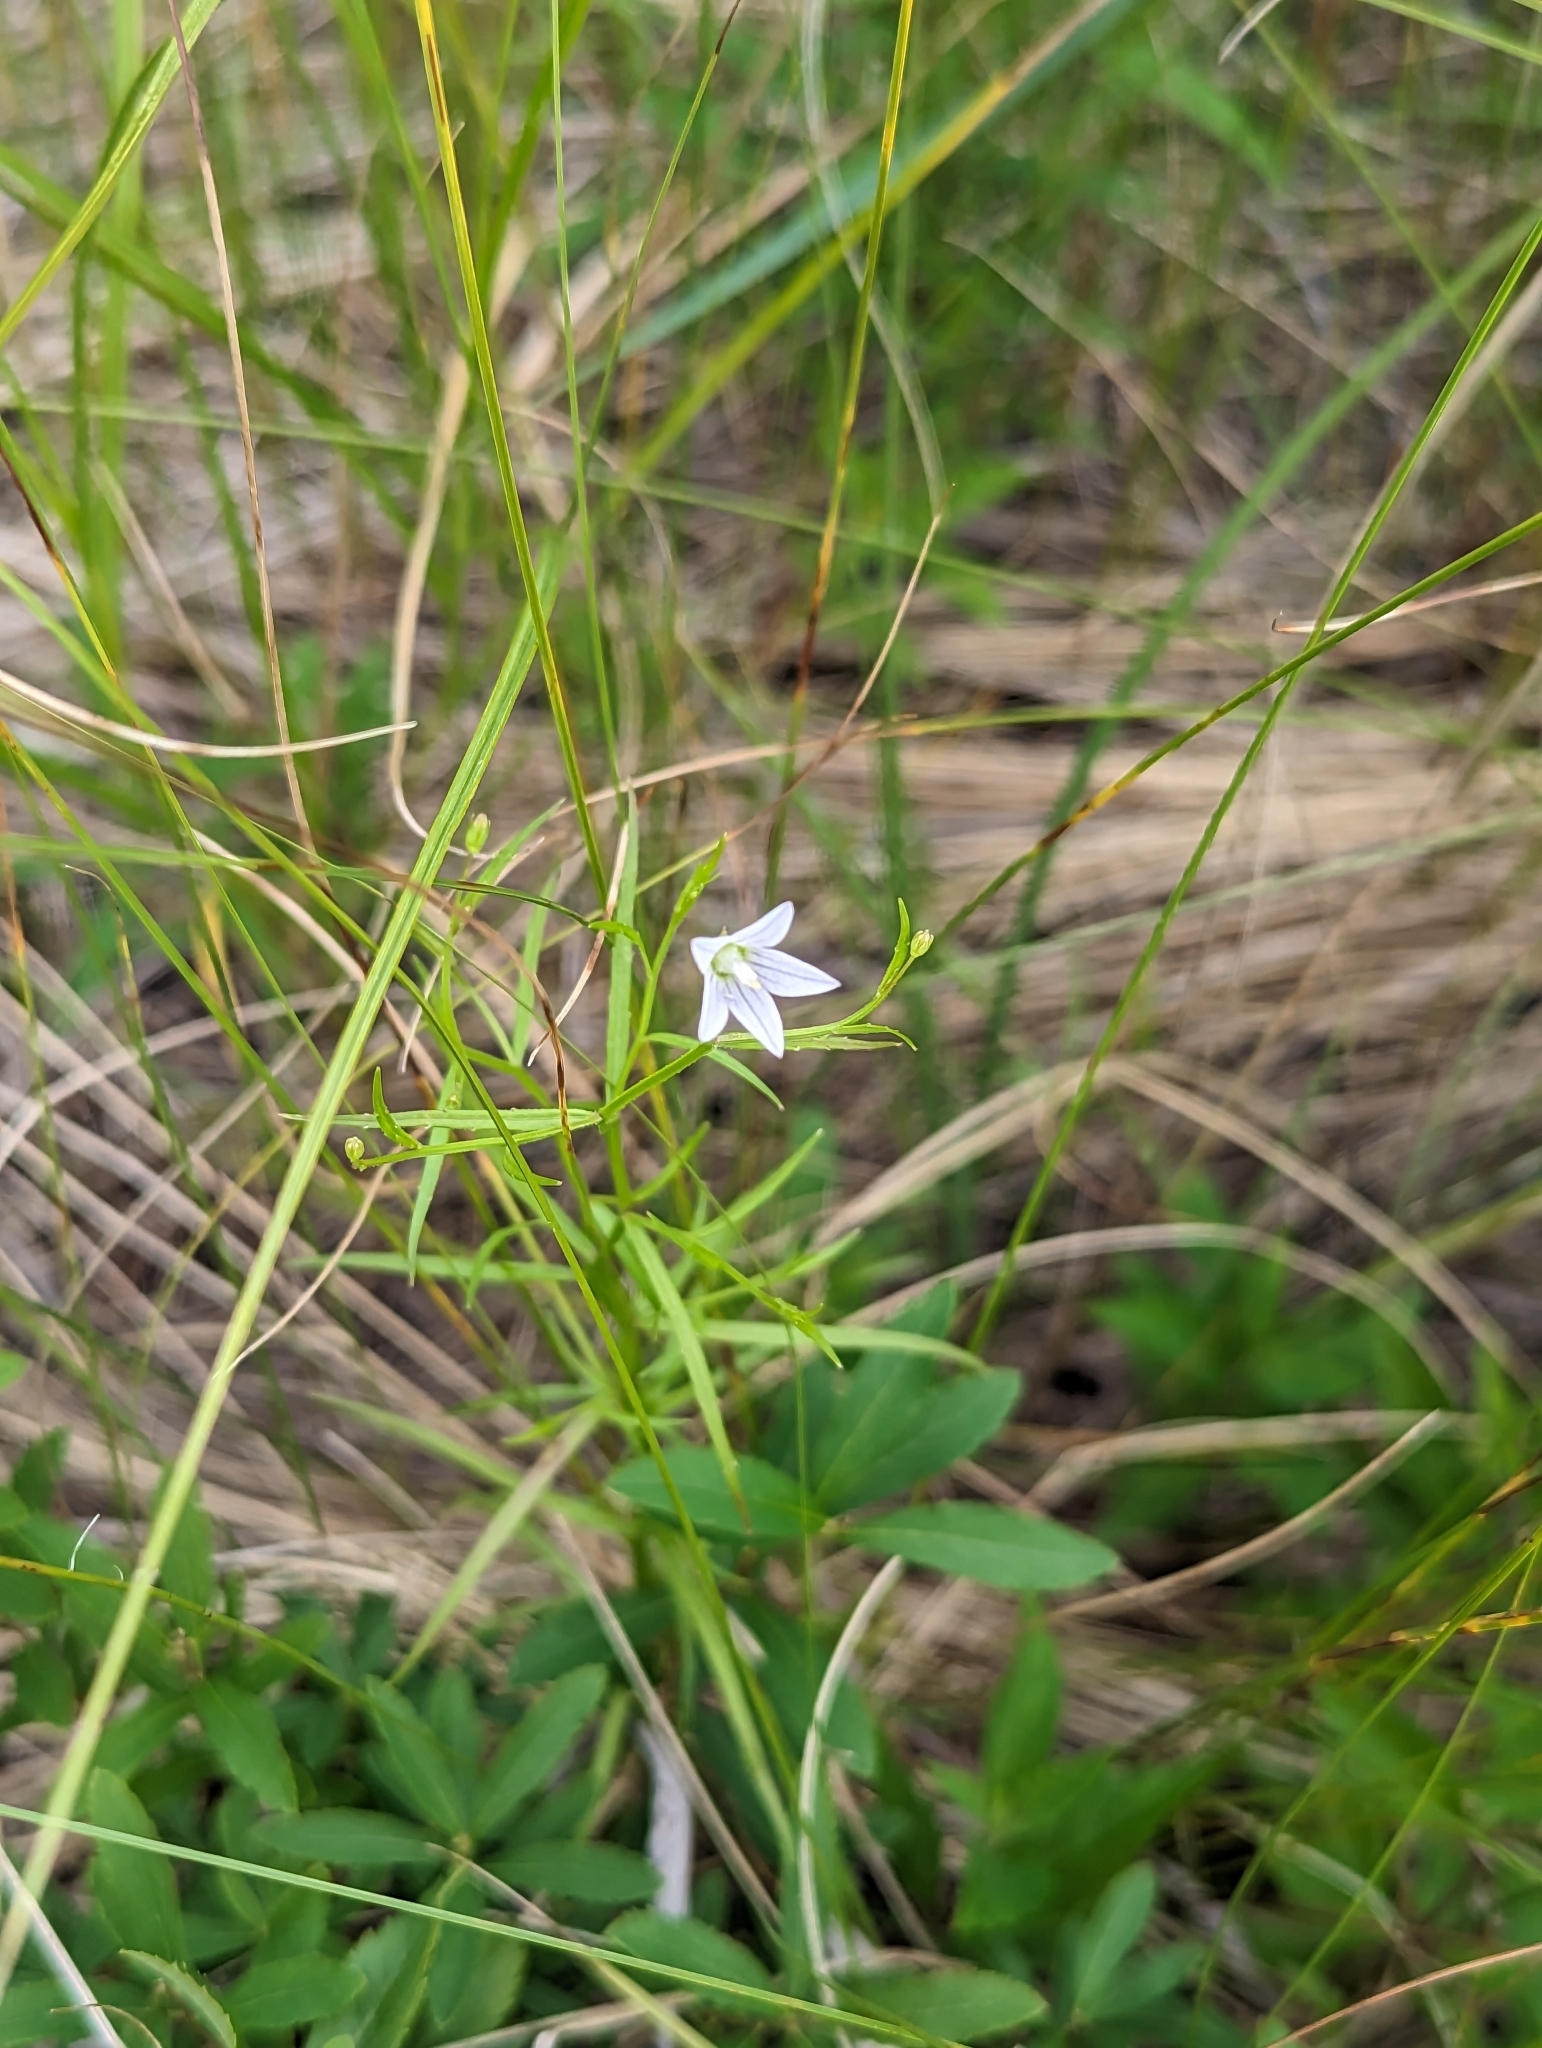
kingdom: Plantae
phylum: Tracheophyta
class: Magnoliopsida
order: Asterales
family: Campanulaceae
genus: Palustricodon
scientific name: Palustricodon aparinoides
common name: Bedstraw bellflower
